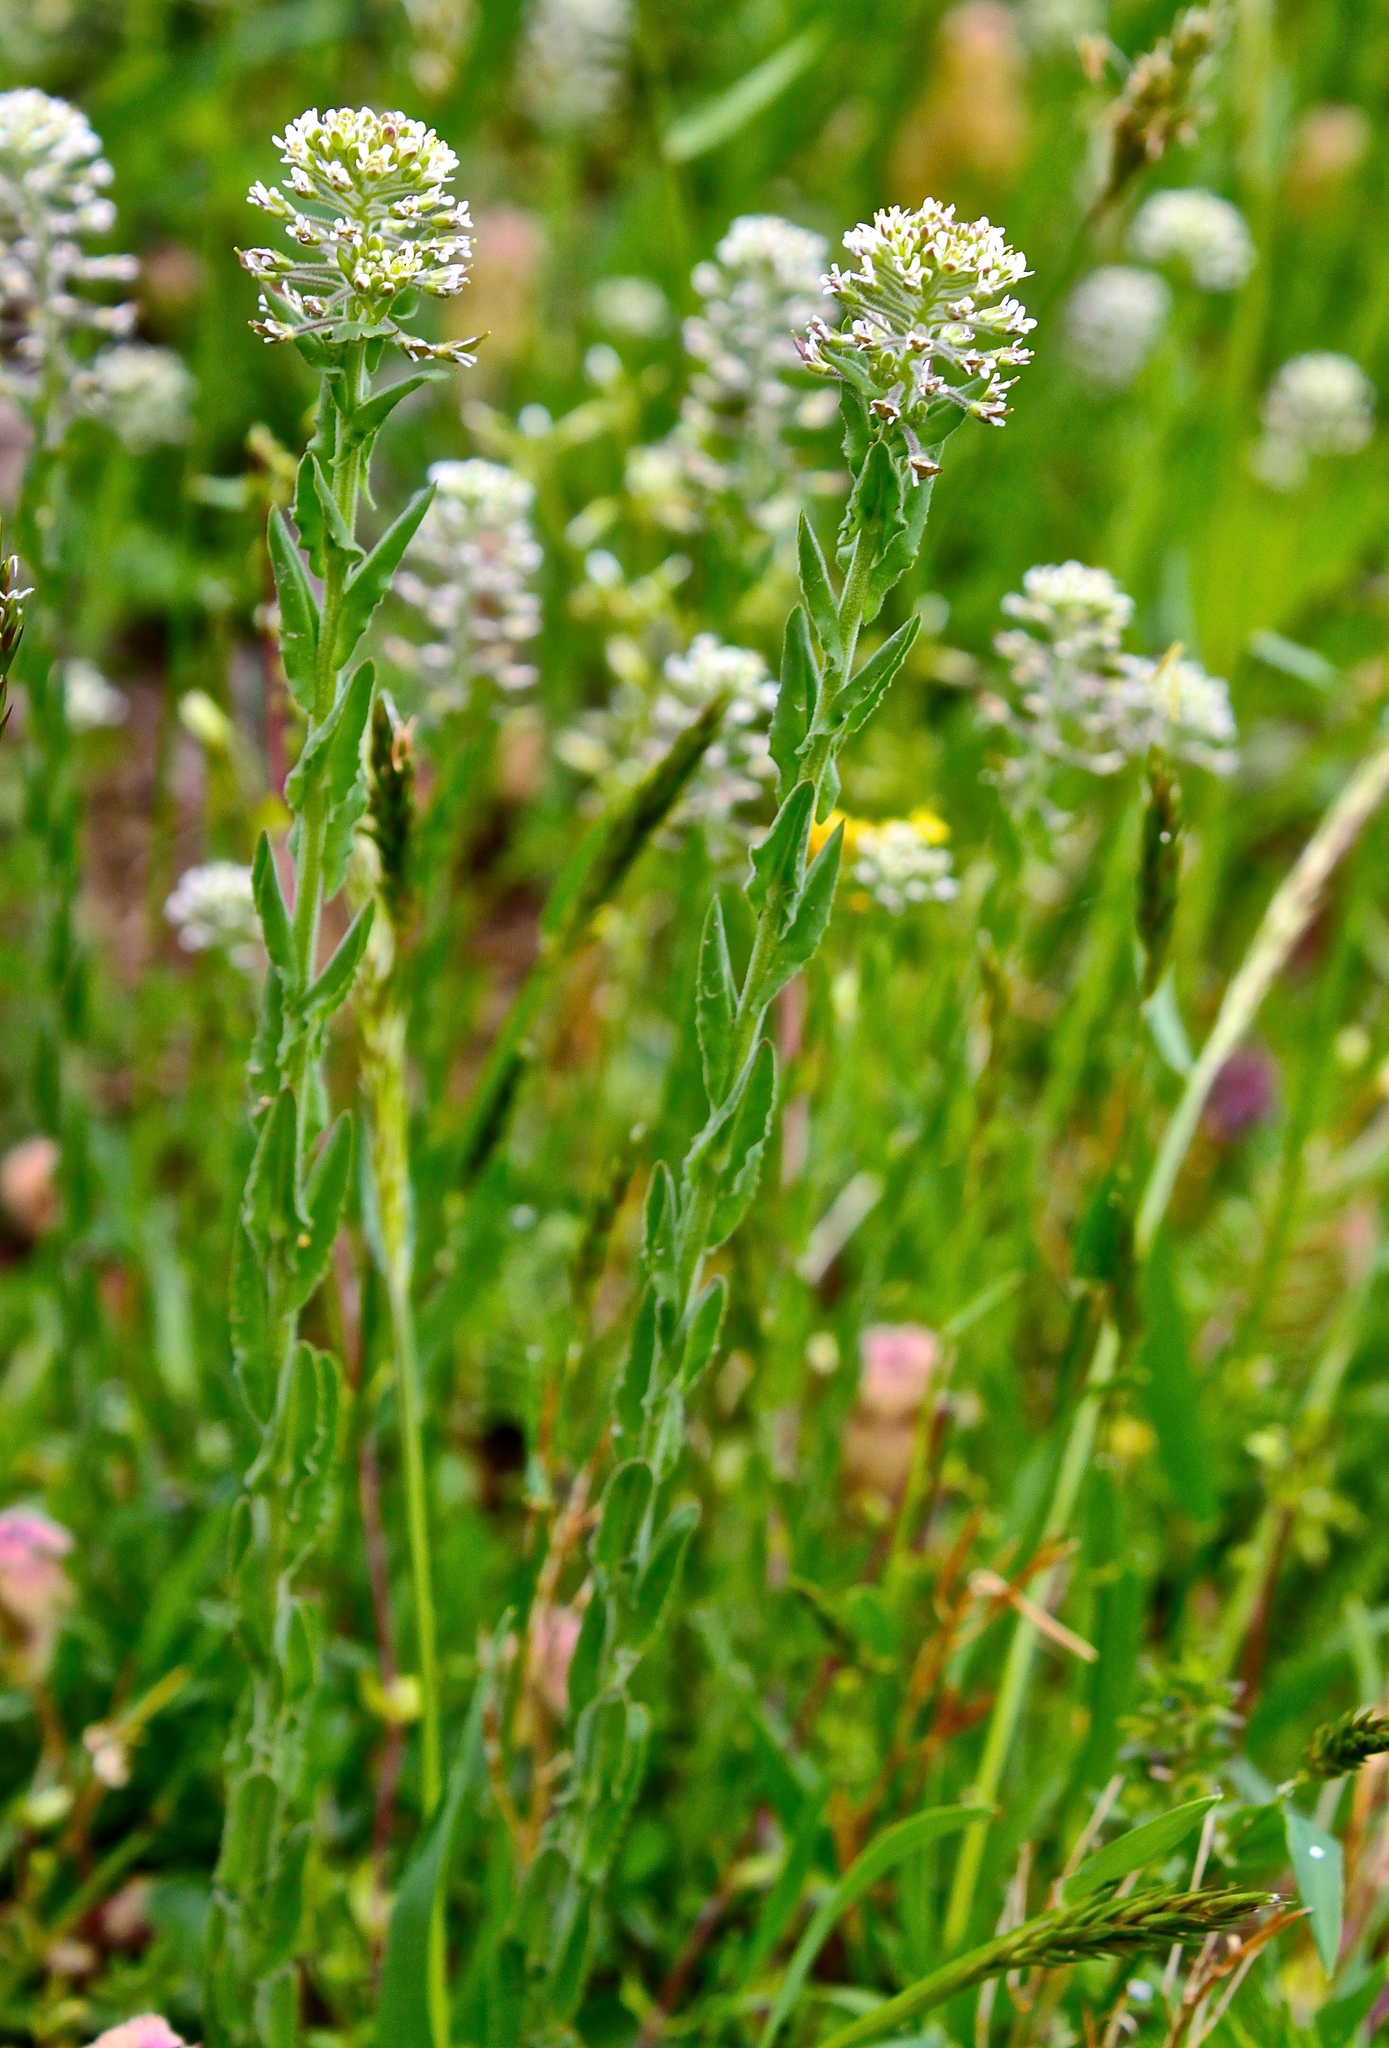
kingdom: Plantae
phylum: Tracheophyta
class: Magnoliopsida
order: Brassicales
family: Brassicaceae
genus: Lepidium
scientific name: Lepidium campestre
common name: Field pepperwort
